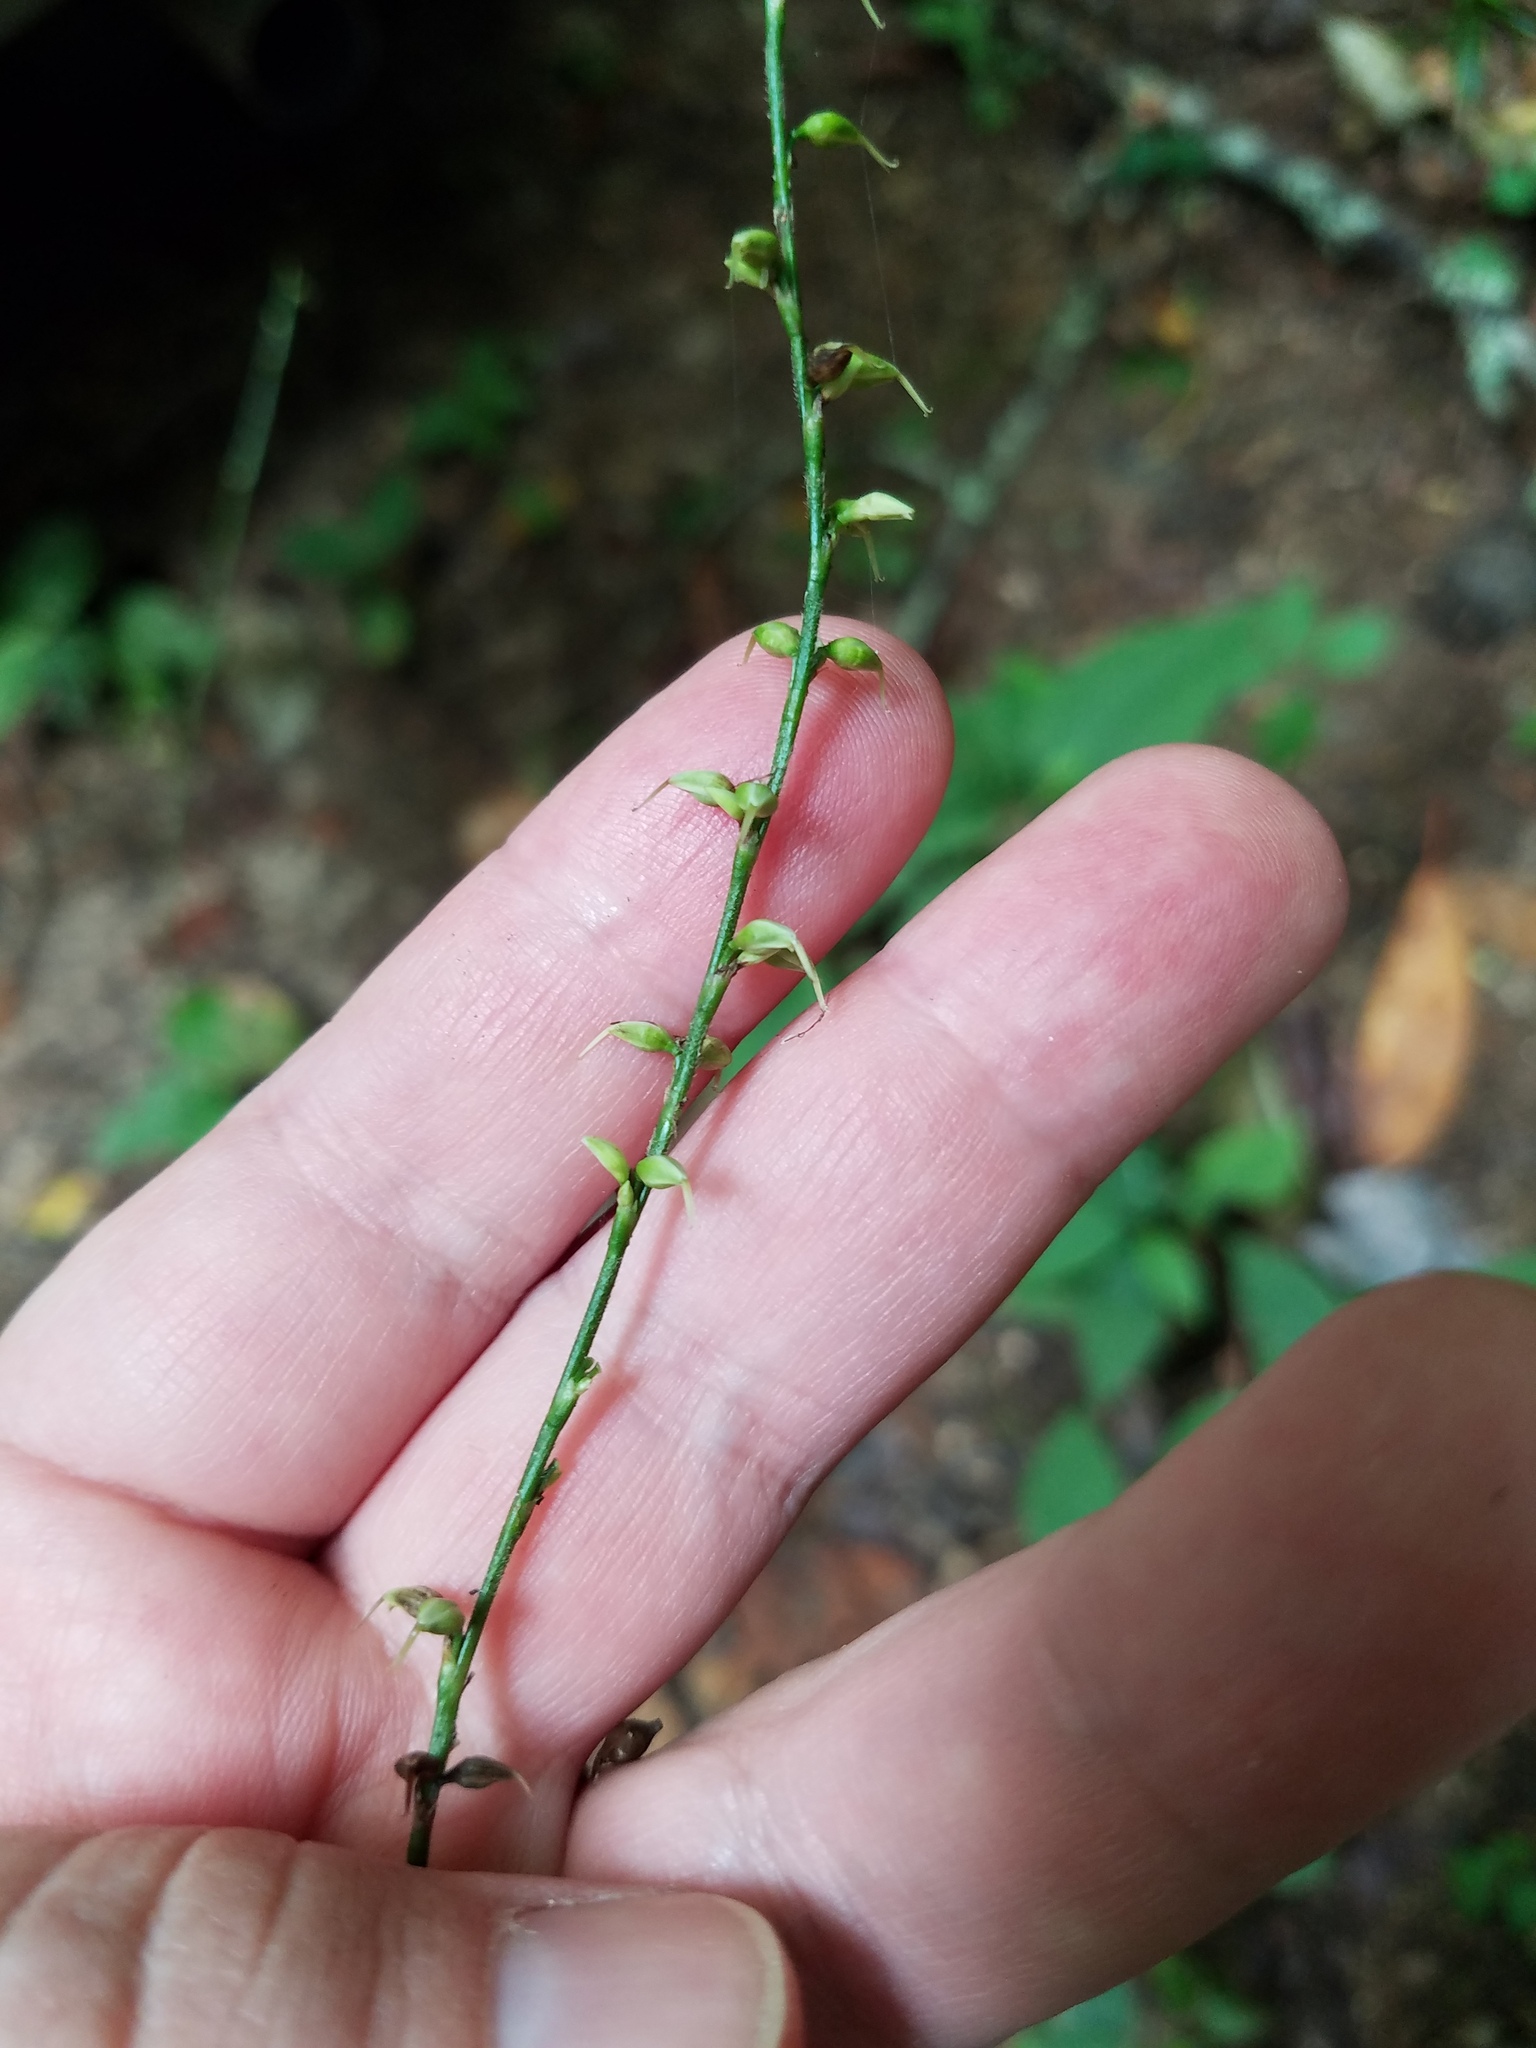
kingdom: Plantae
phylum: Tracheophyta
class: Magnoliopsida
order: Caryophyllales
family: Polygonaceae
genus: Persicaria
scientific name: Persicaria virginiana
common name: Jumpseed
